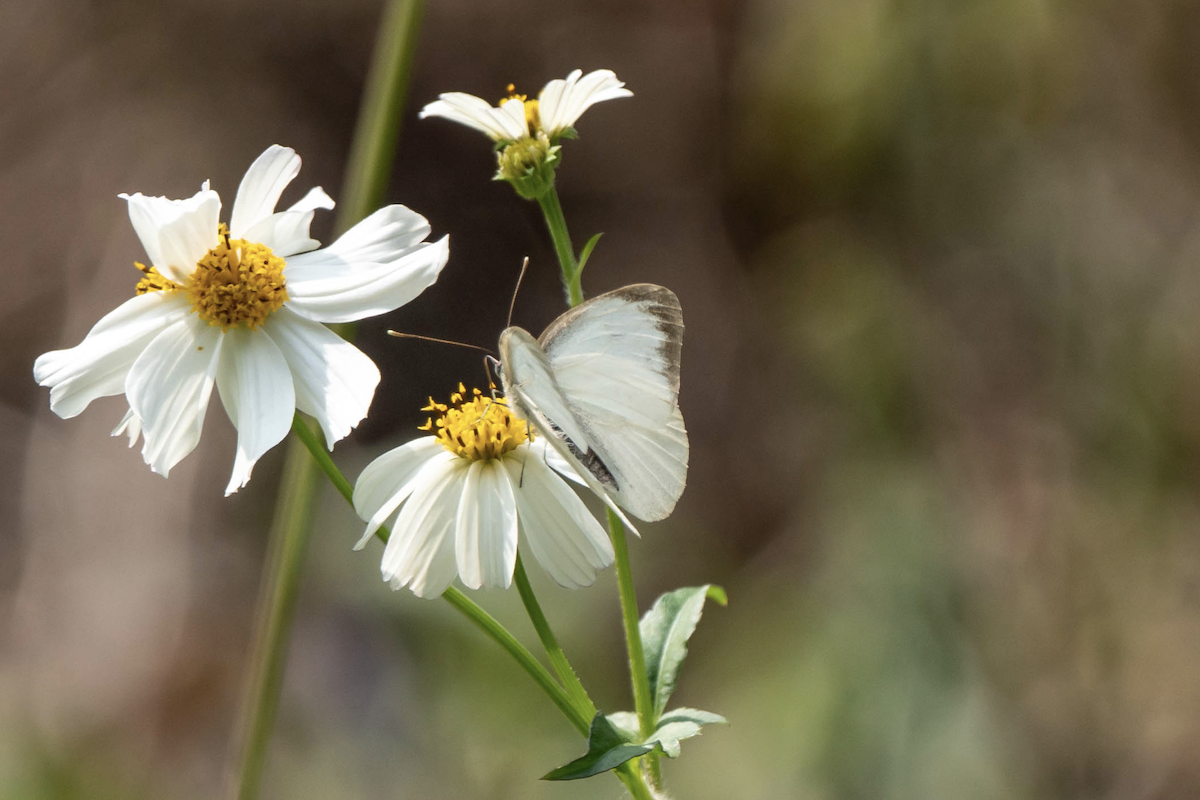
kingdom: Animalia
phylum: Arthropoda
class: Insecta
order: Lepidoptera
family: Pieridae
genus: Cepora
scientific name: Cepora nerissa
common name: Common gull
